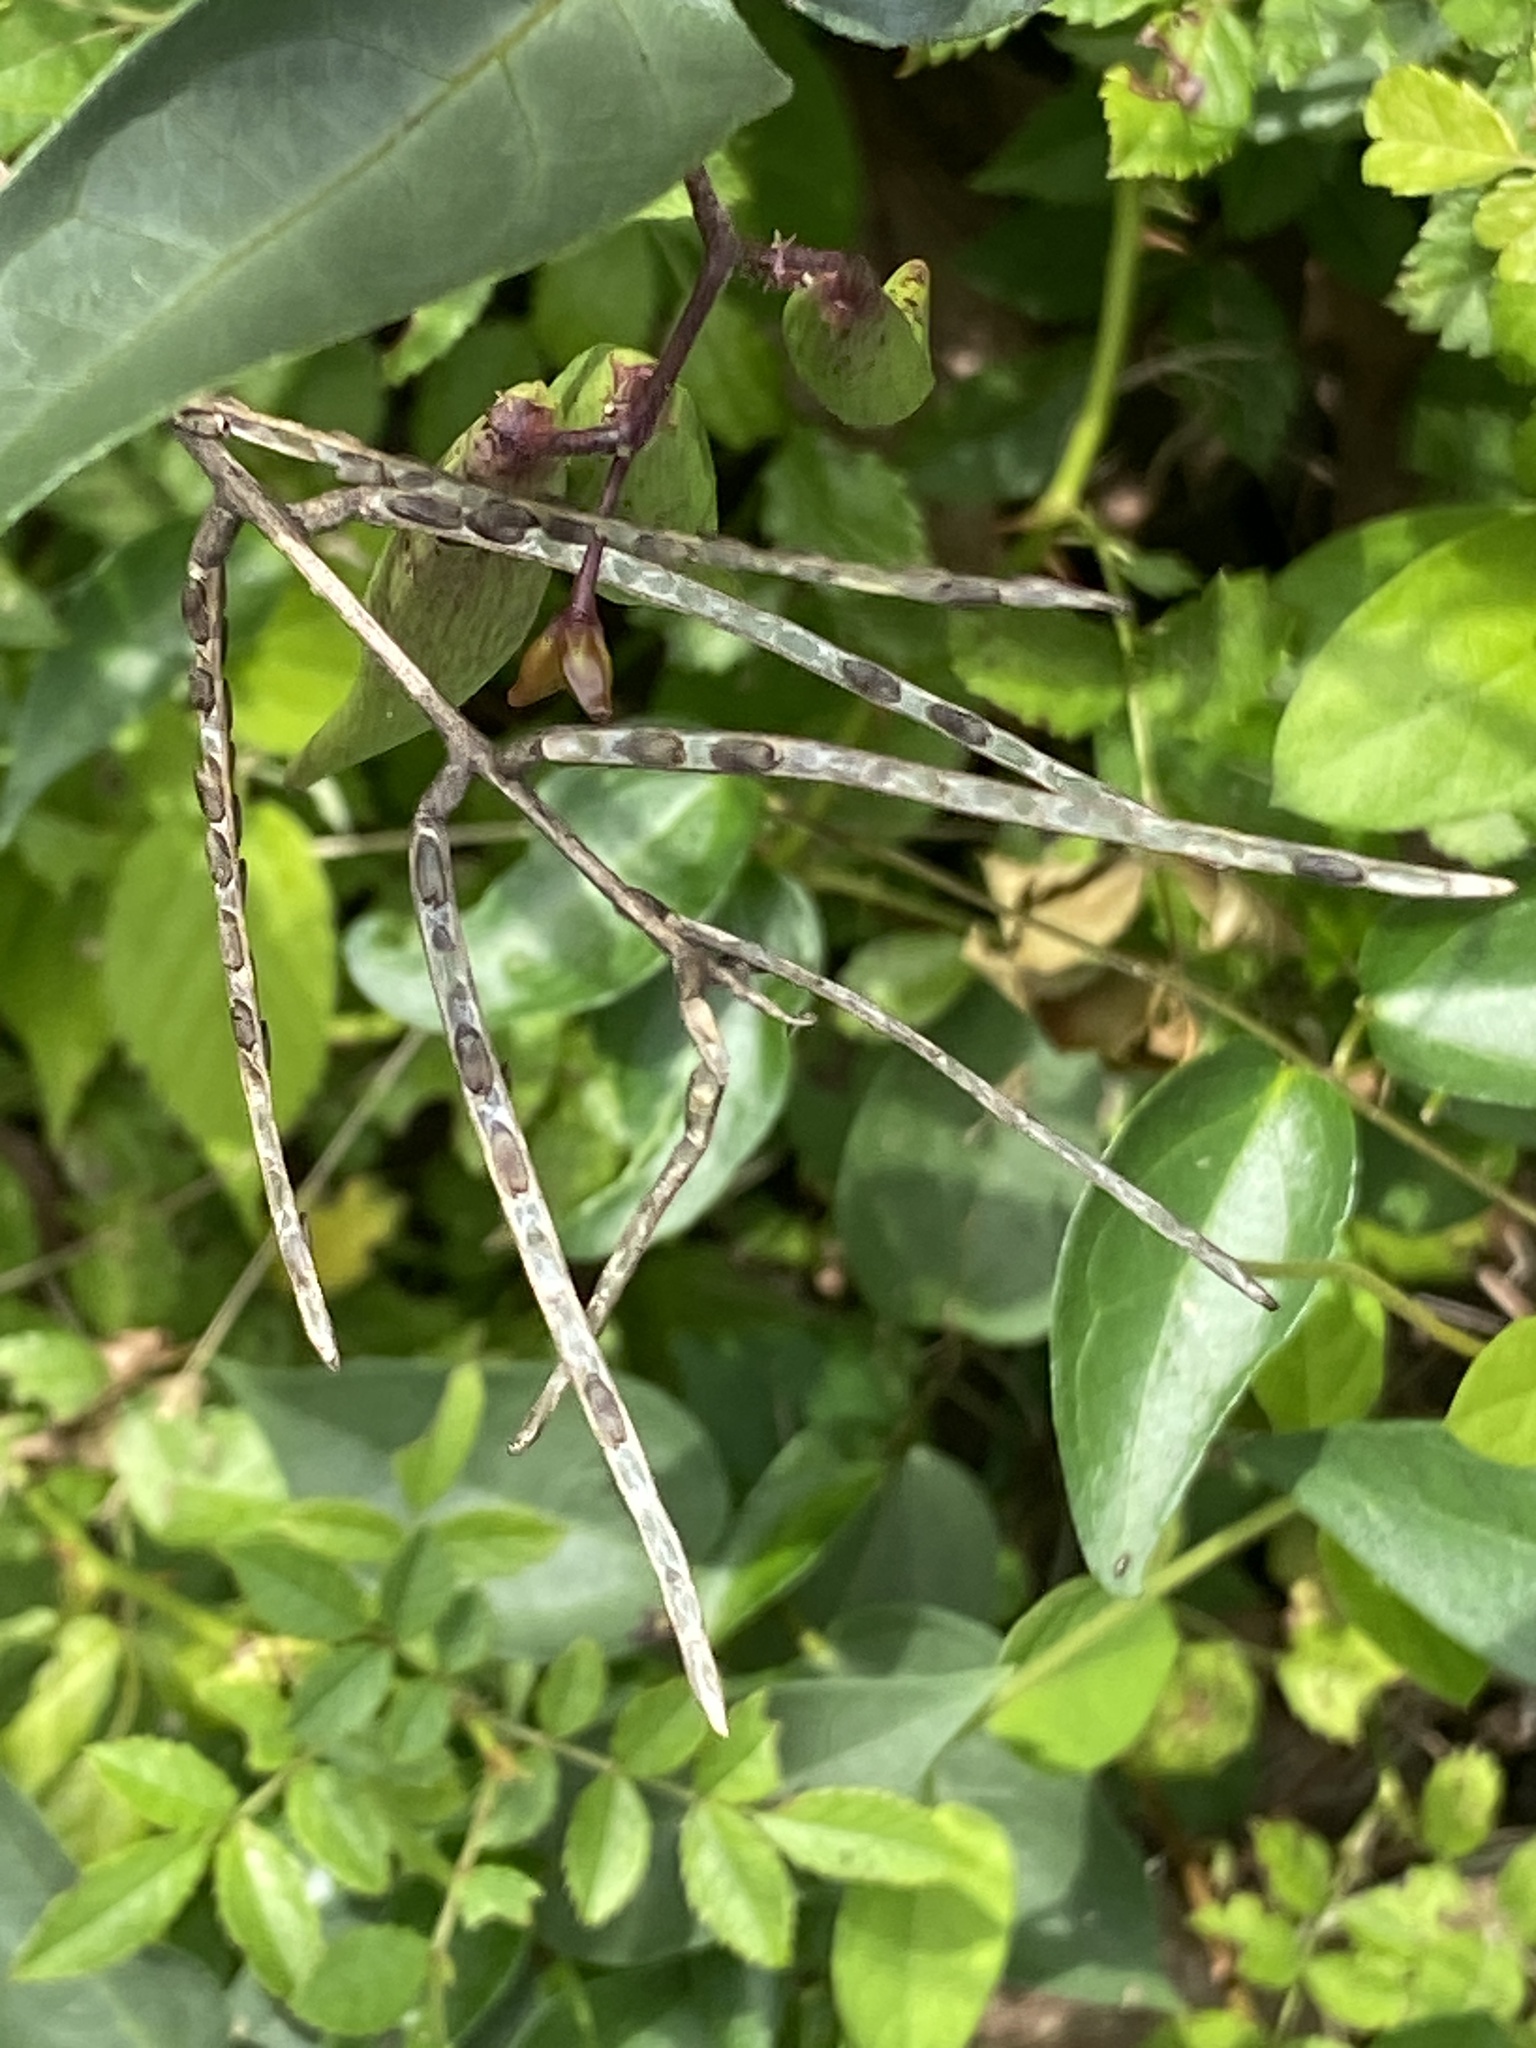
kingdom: Plantae
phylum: Tracheophyta
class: Magnoliopsida
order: Brassicales
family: Brassicaceae
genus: Alliaria
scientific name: Alliaria petiolata
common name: Garlic mustard
